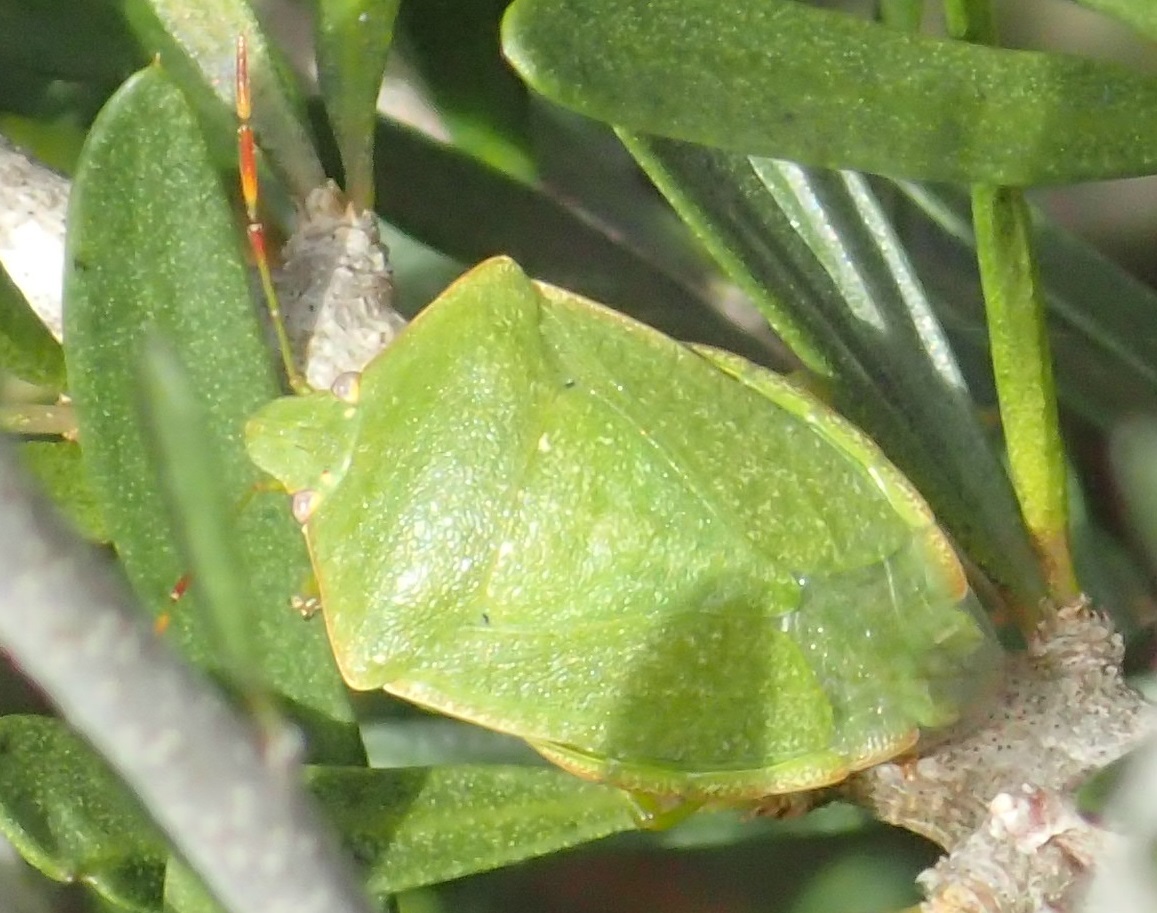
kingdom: Animalia
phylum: Arthropoda
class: Insecta
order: Hemiptera
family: Pentatomidae
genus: Nezara
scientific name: Nezara viridula
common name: Southern green stink bug
